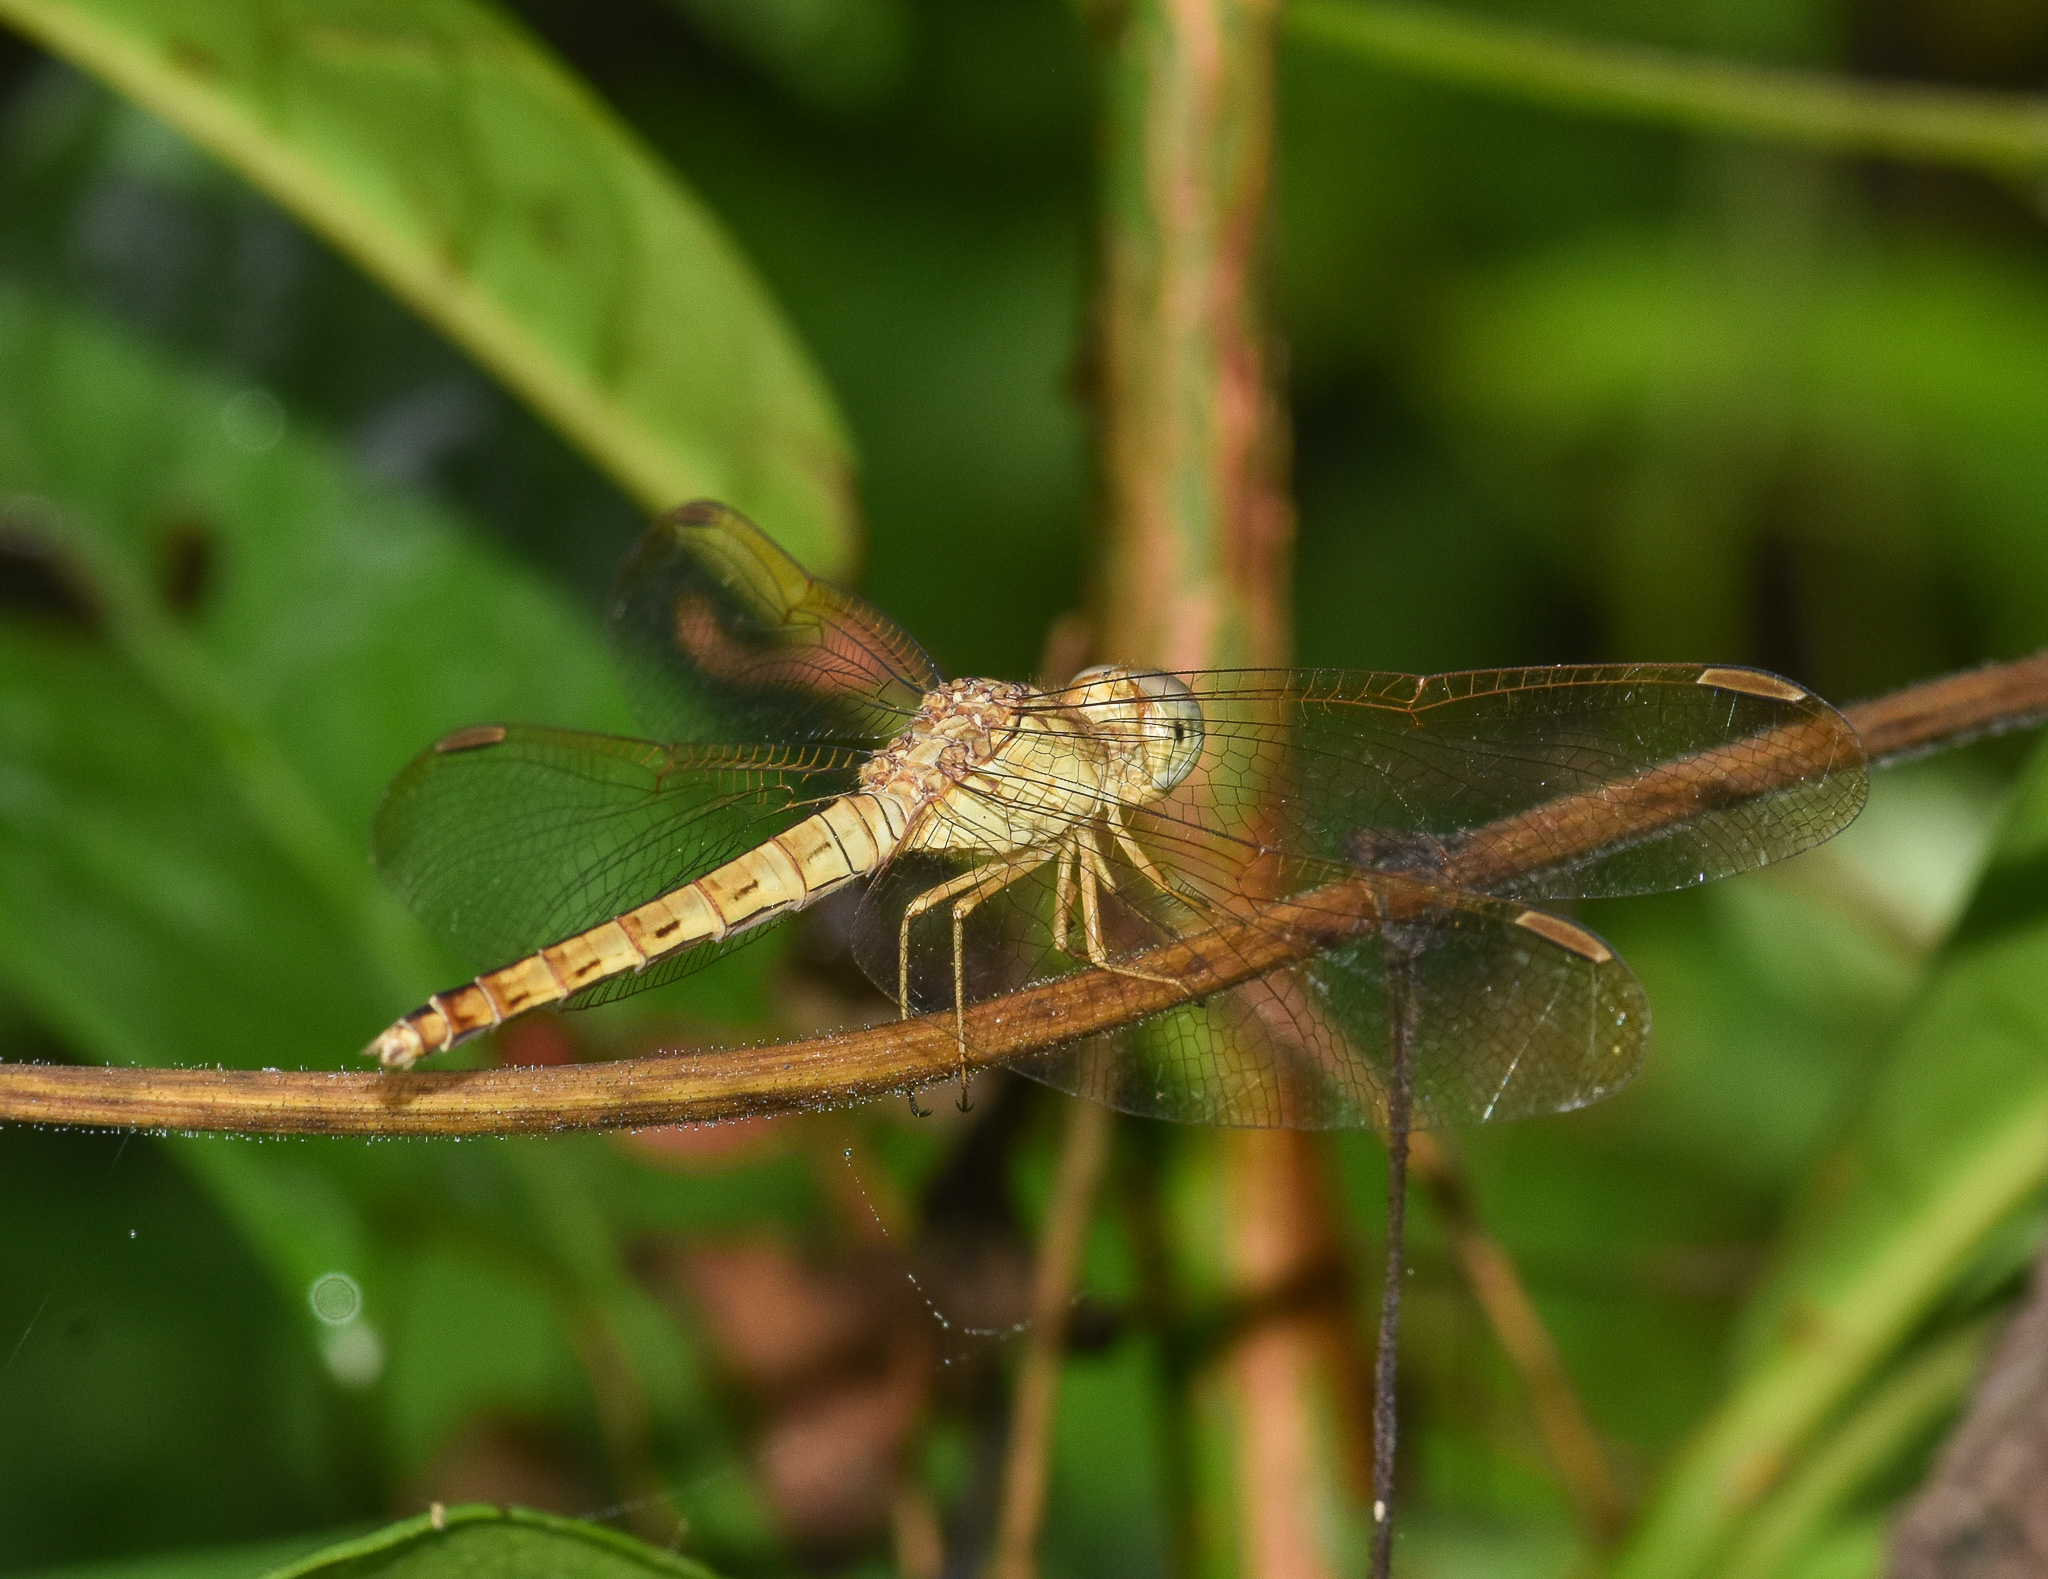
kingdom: Animalia
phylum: Arthropoda
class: Insecta
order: Odonata
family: Libellulidae
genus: Neurothemis
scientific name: Neurothemis fluctuans
